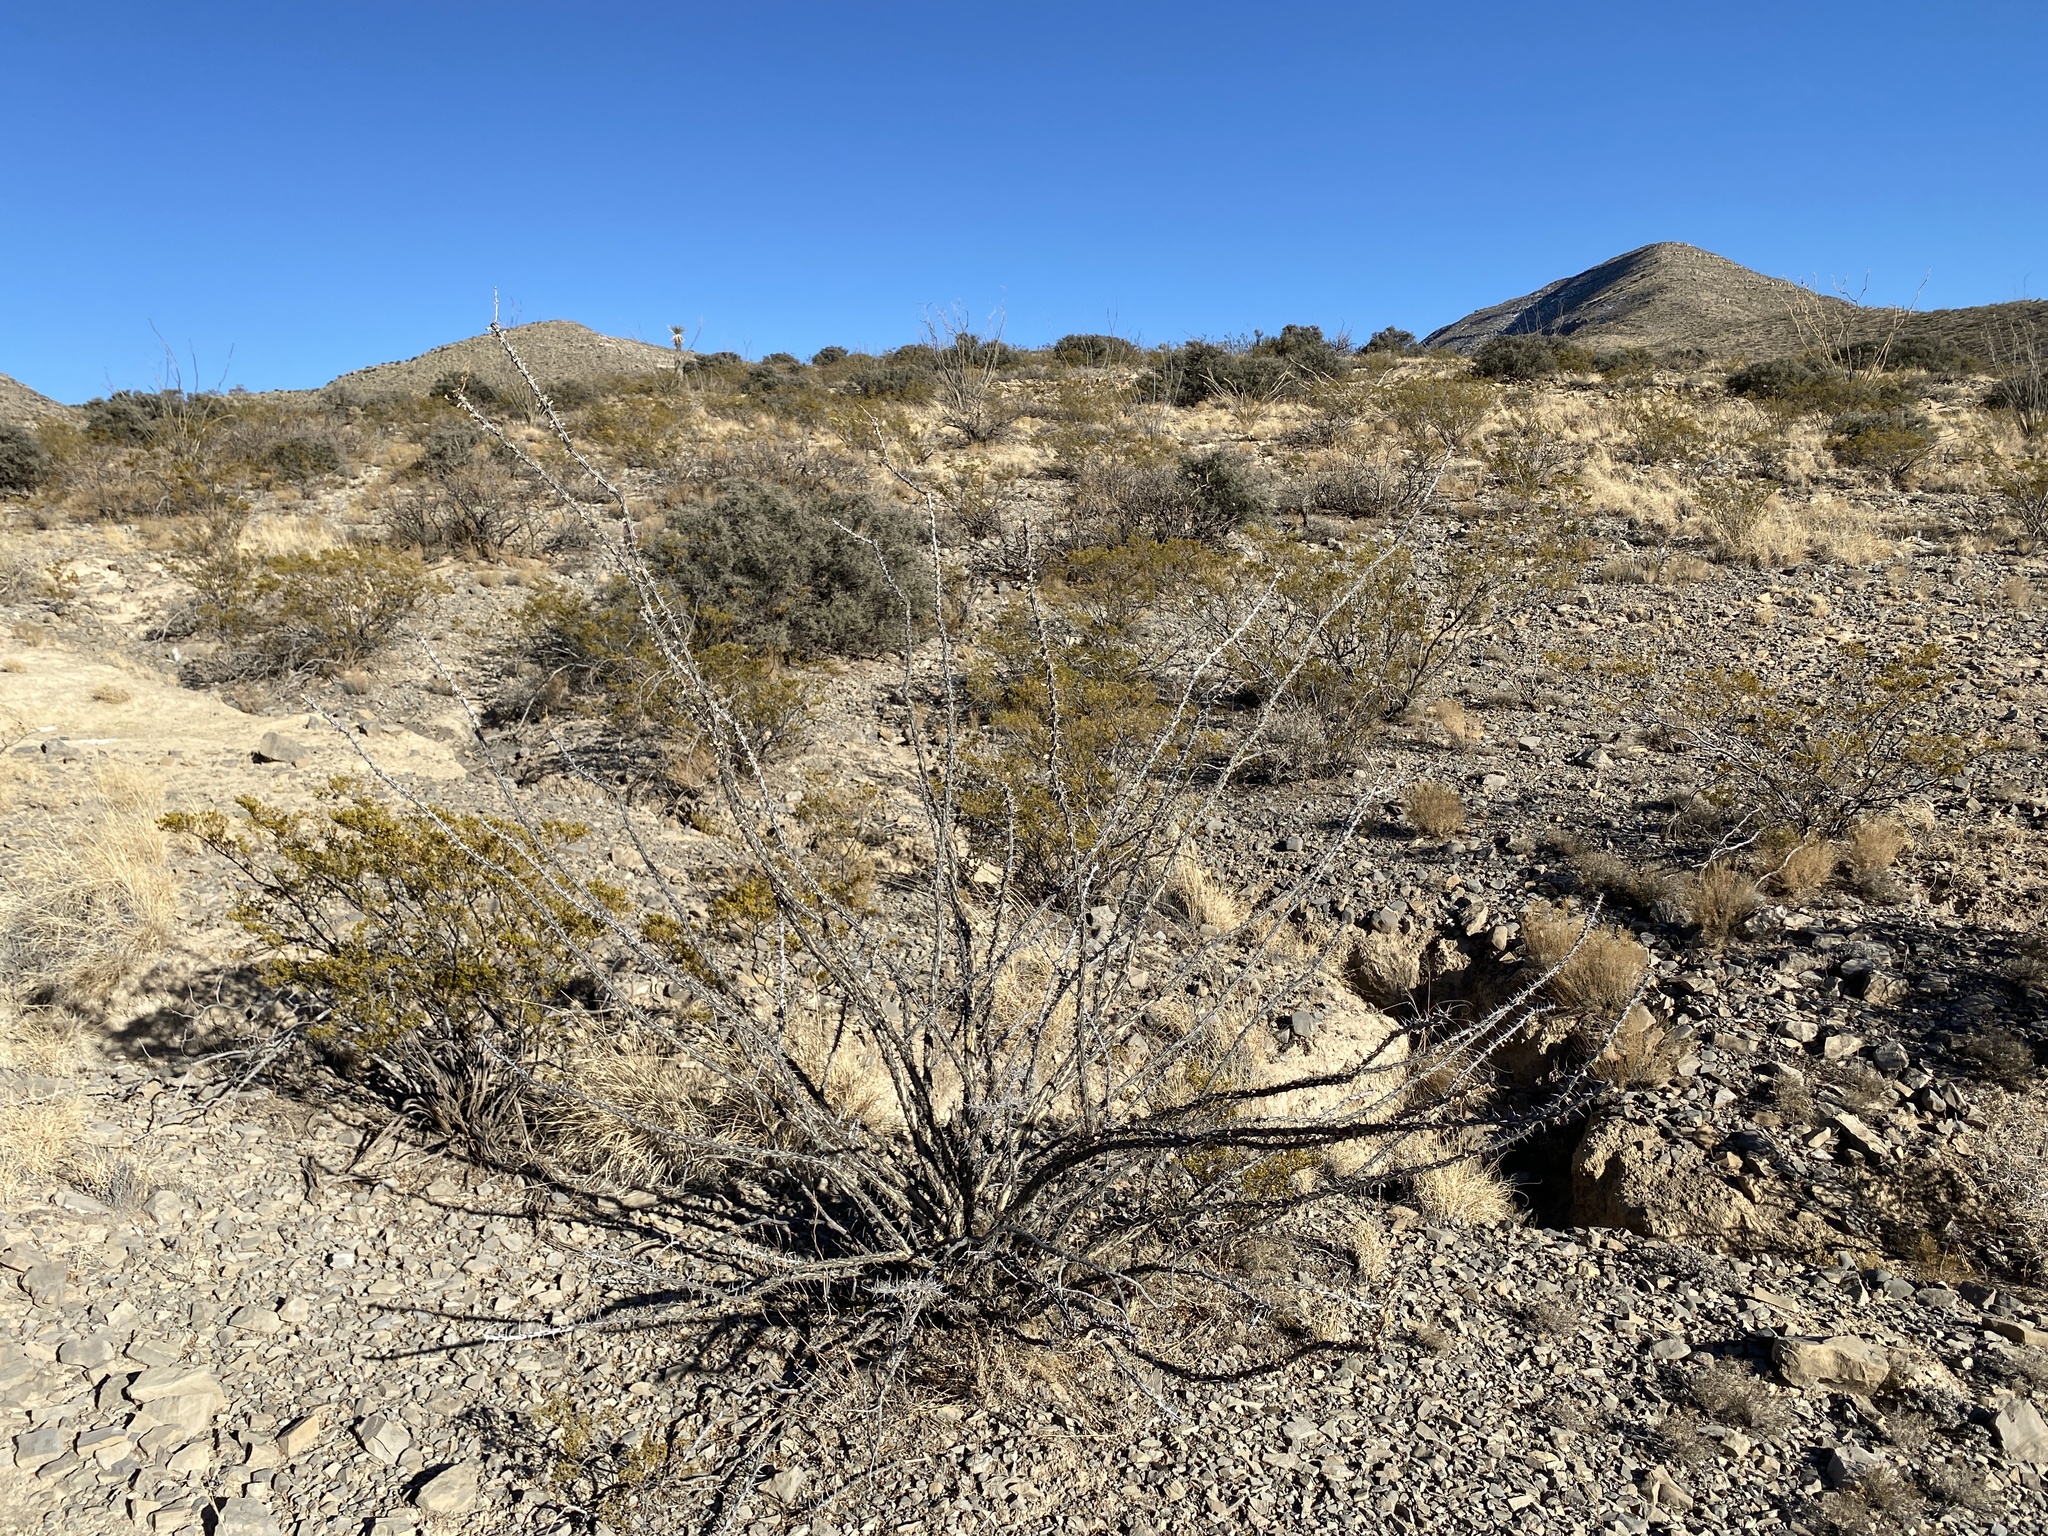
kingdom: Plantae
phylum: Tracheophyta
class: Magnoliopsida
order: Ericales
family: Fouquieriaceae
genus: Fouquieria
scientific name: Fouquieria splendens
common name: Vine-cactus
